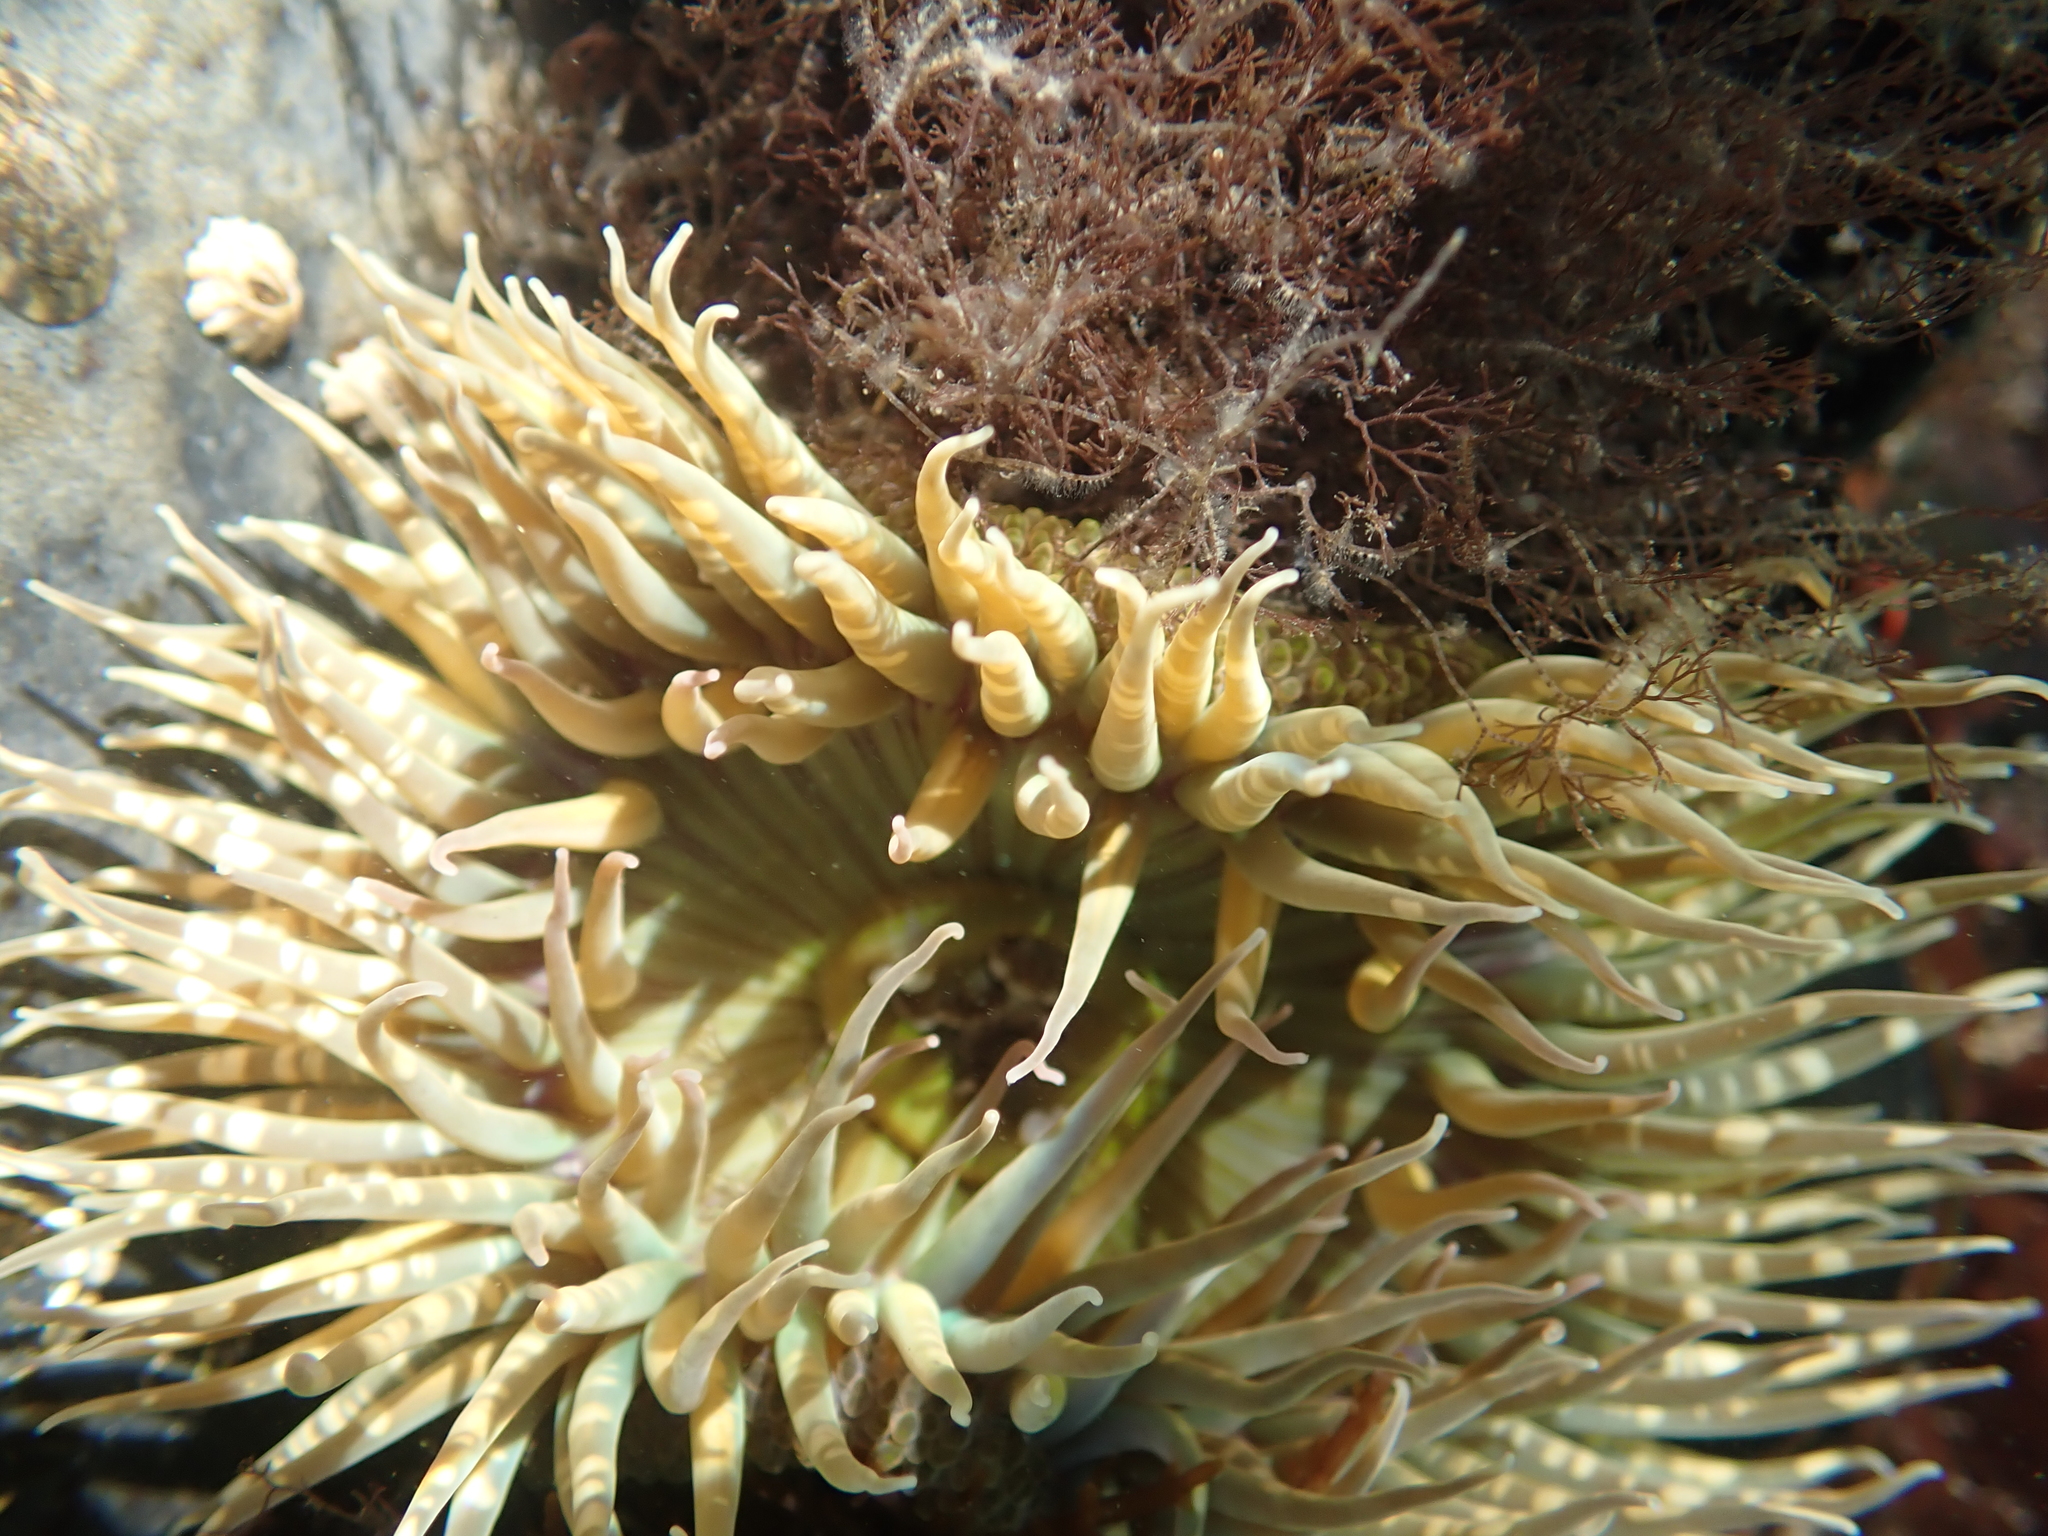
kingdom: Animalia
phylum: Cnidaria
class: Anthozoa
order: Actiniaria
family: Actiniidae
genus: Anthopleura
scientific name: Anthopleura sola
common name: Sun anemone
